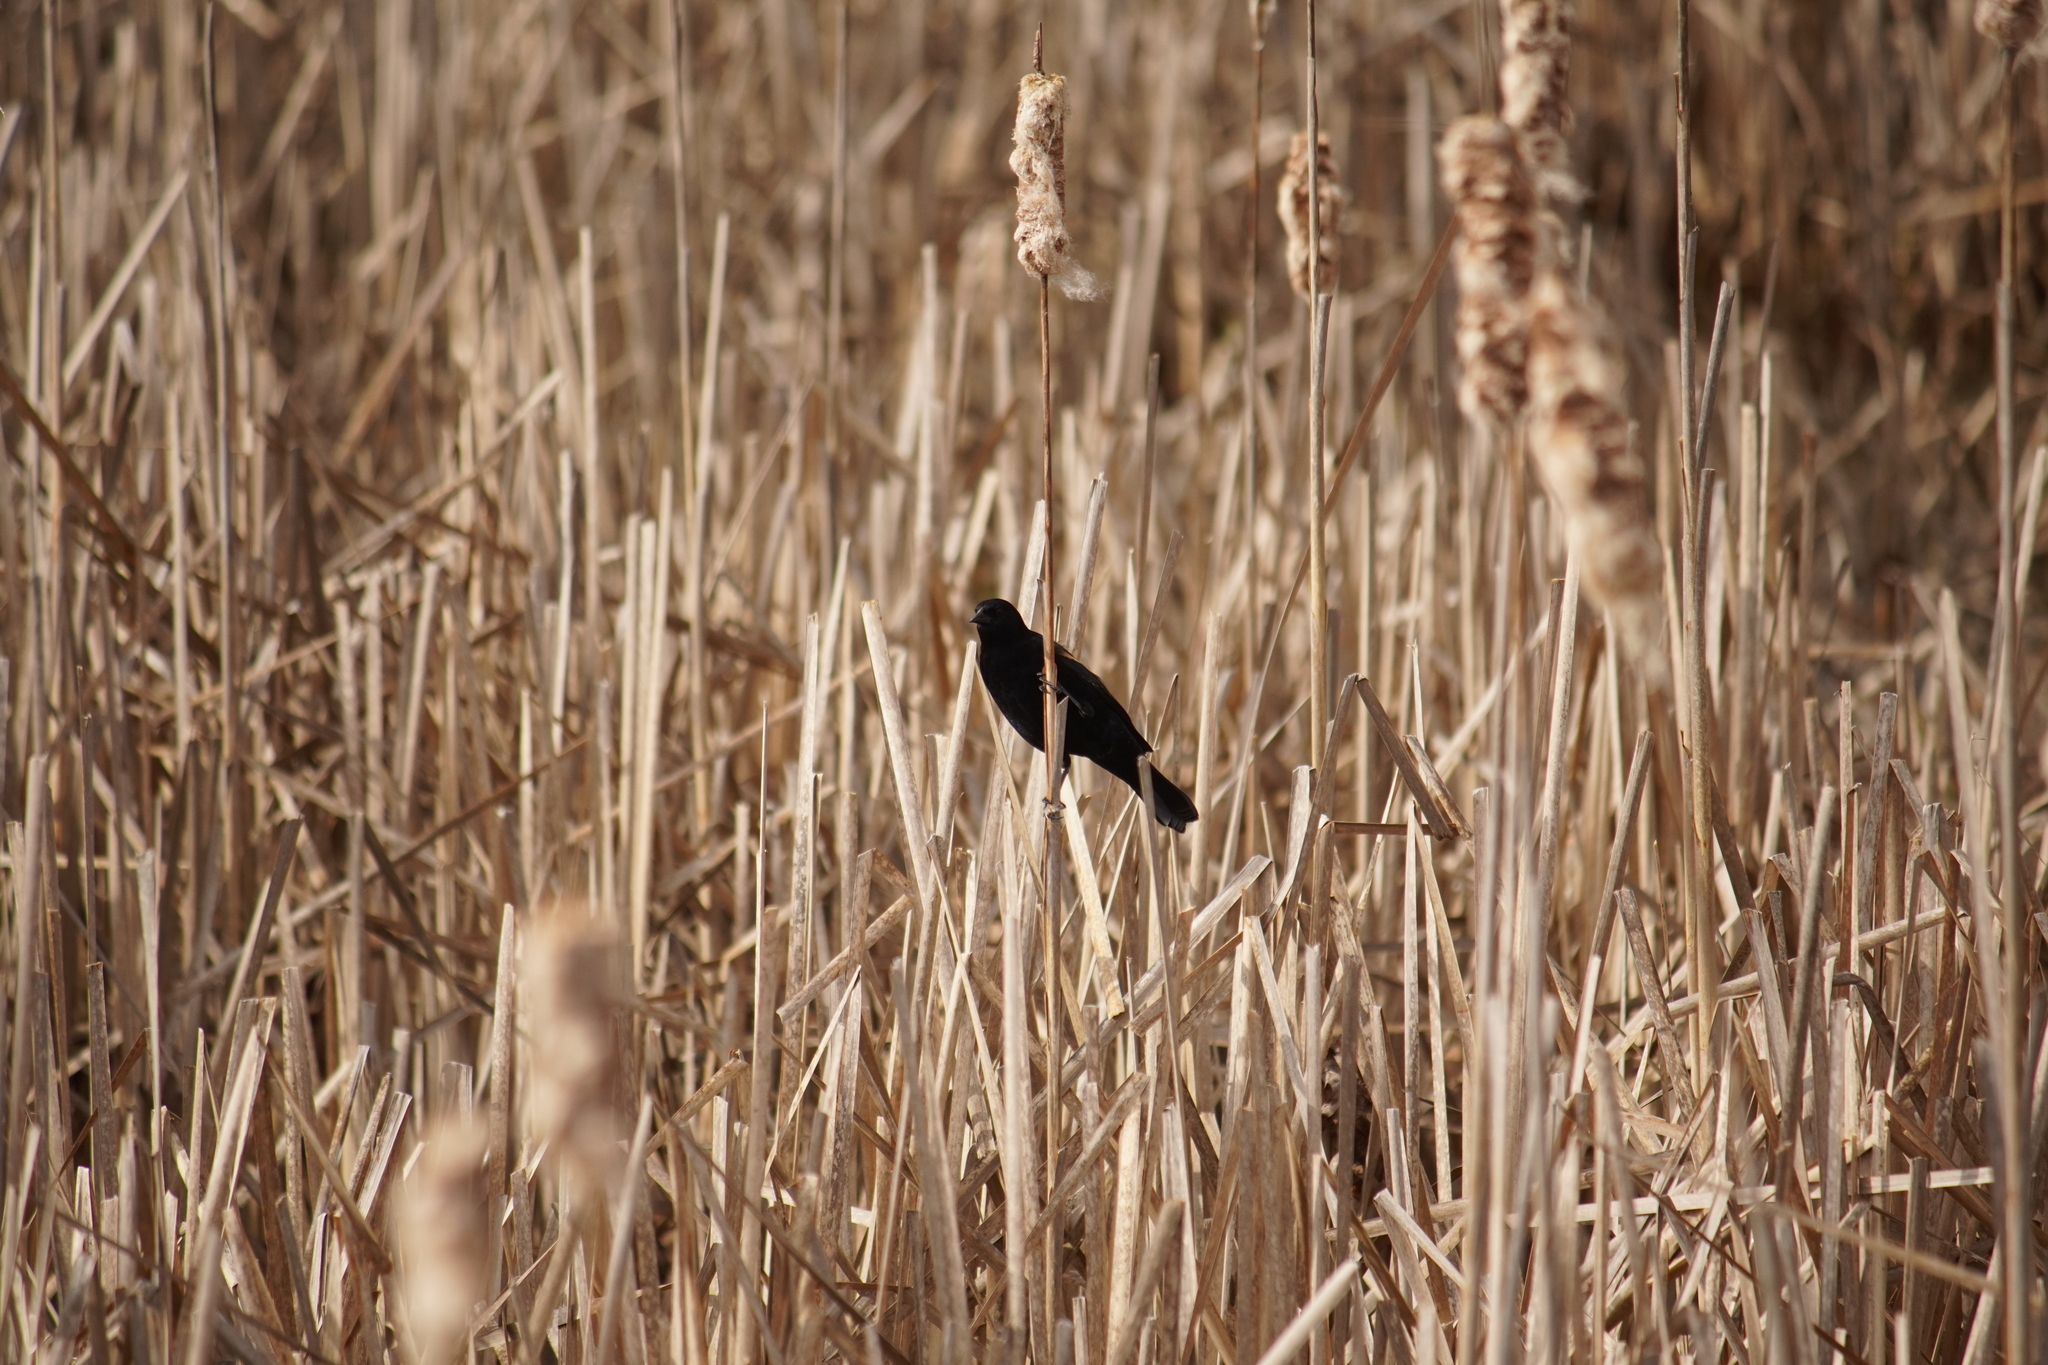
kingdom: Animalia
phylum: Chordata
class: Aves
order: Passeriformes
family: Icteridae
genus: Agelaius
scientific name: Agelaius phoeniceus
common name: Red-winged blackbird
